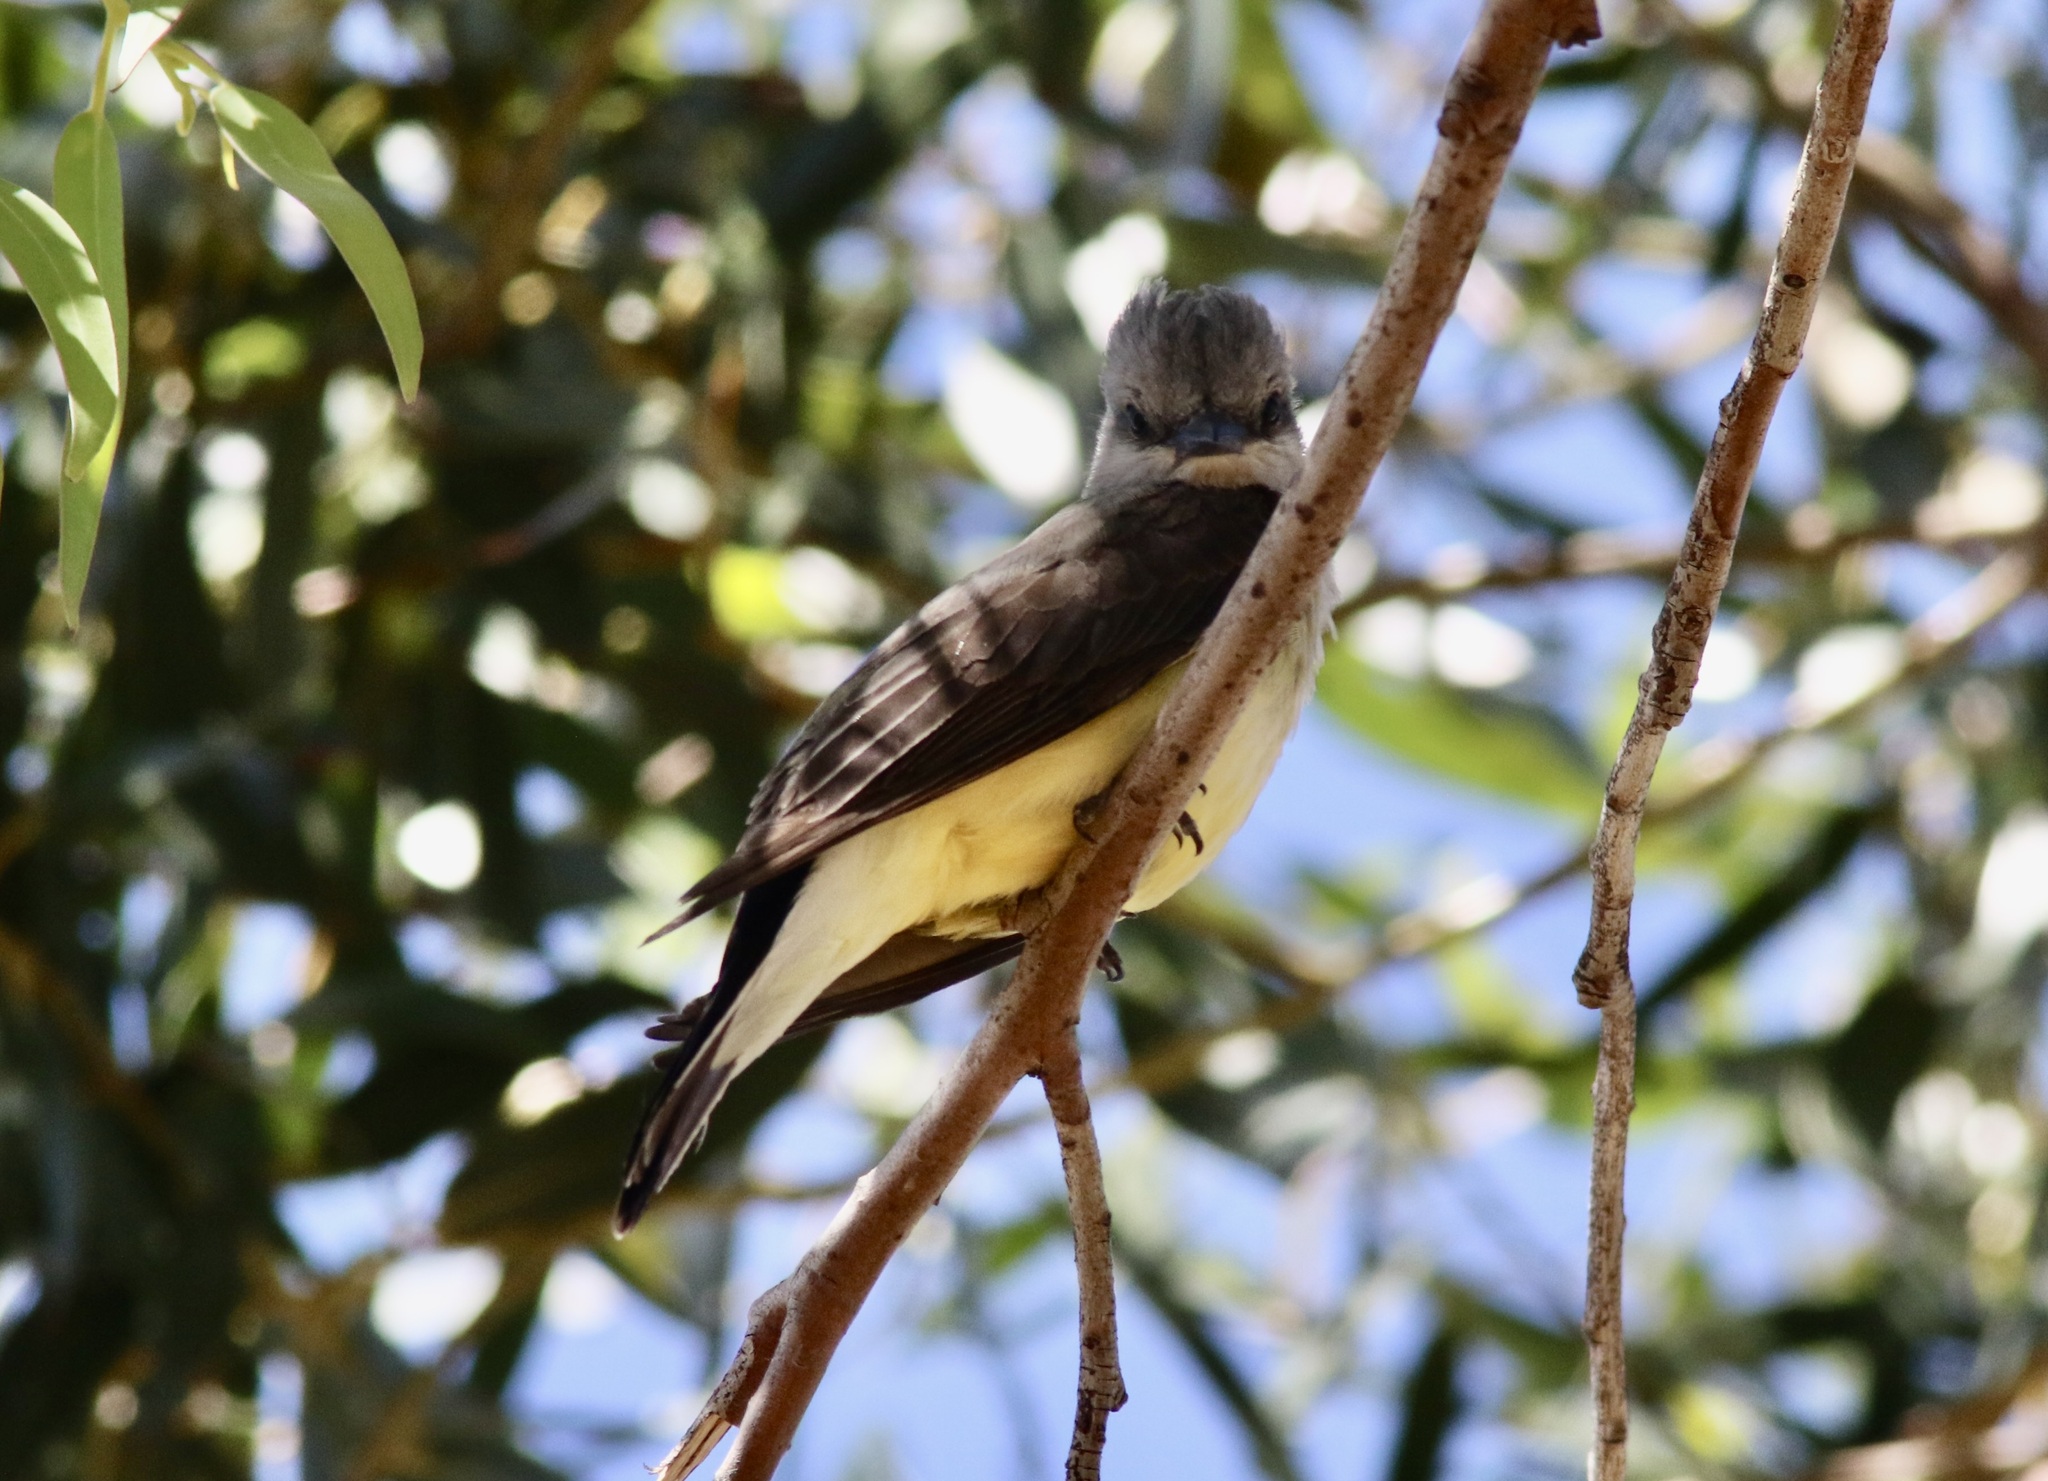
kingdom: Animalia
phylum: Chordata
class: Aves
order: Passeriformes
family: Tyrannidae
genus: Tyrannus
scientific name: Tyrannus verticalis
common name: Western kingbird
